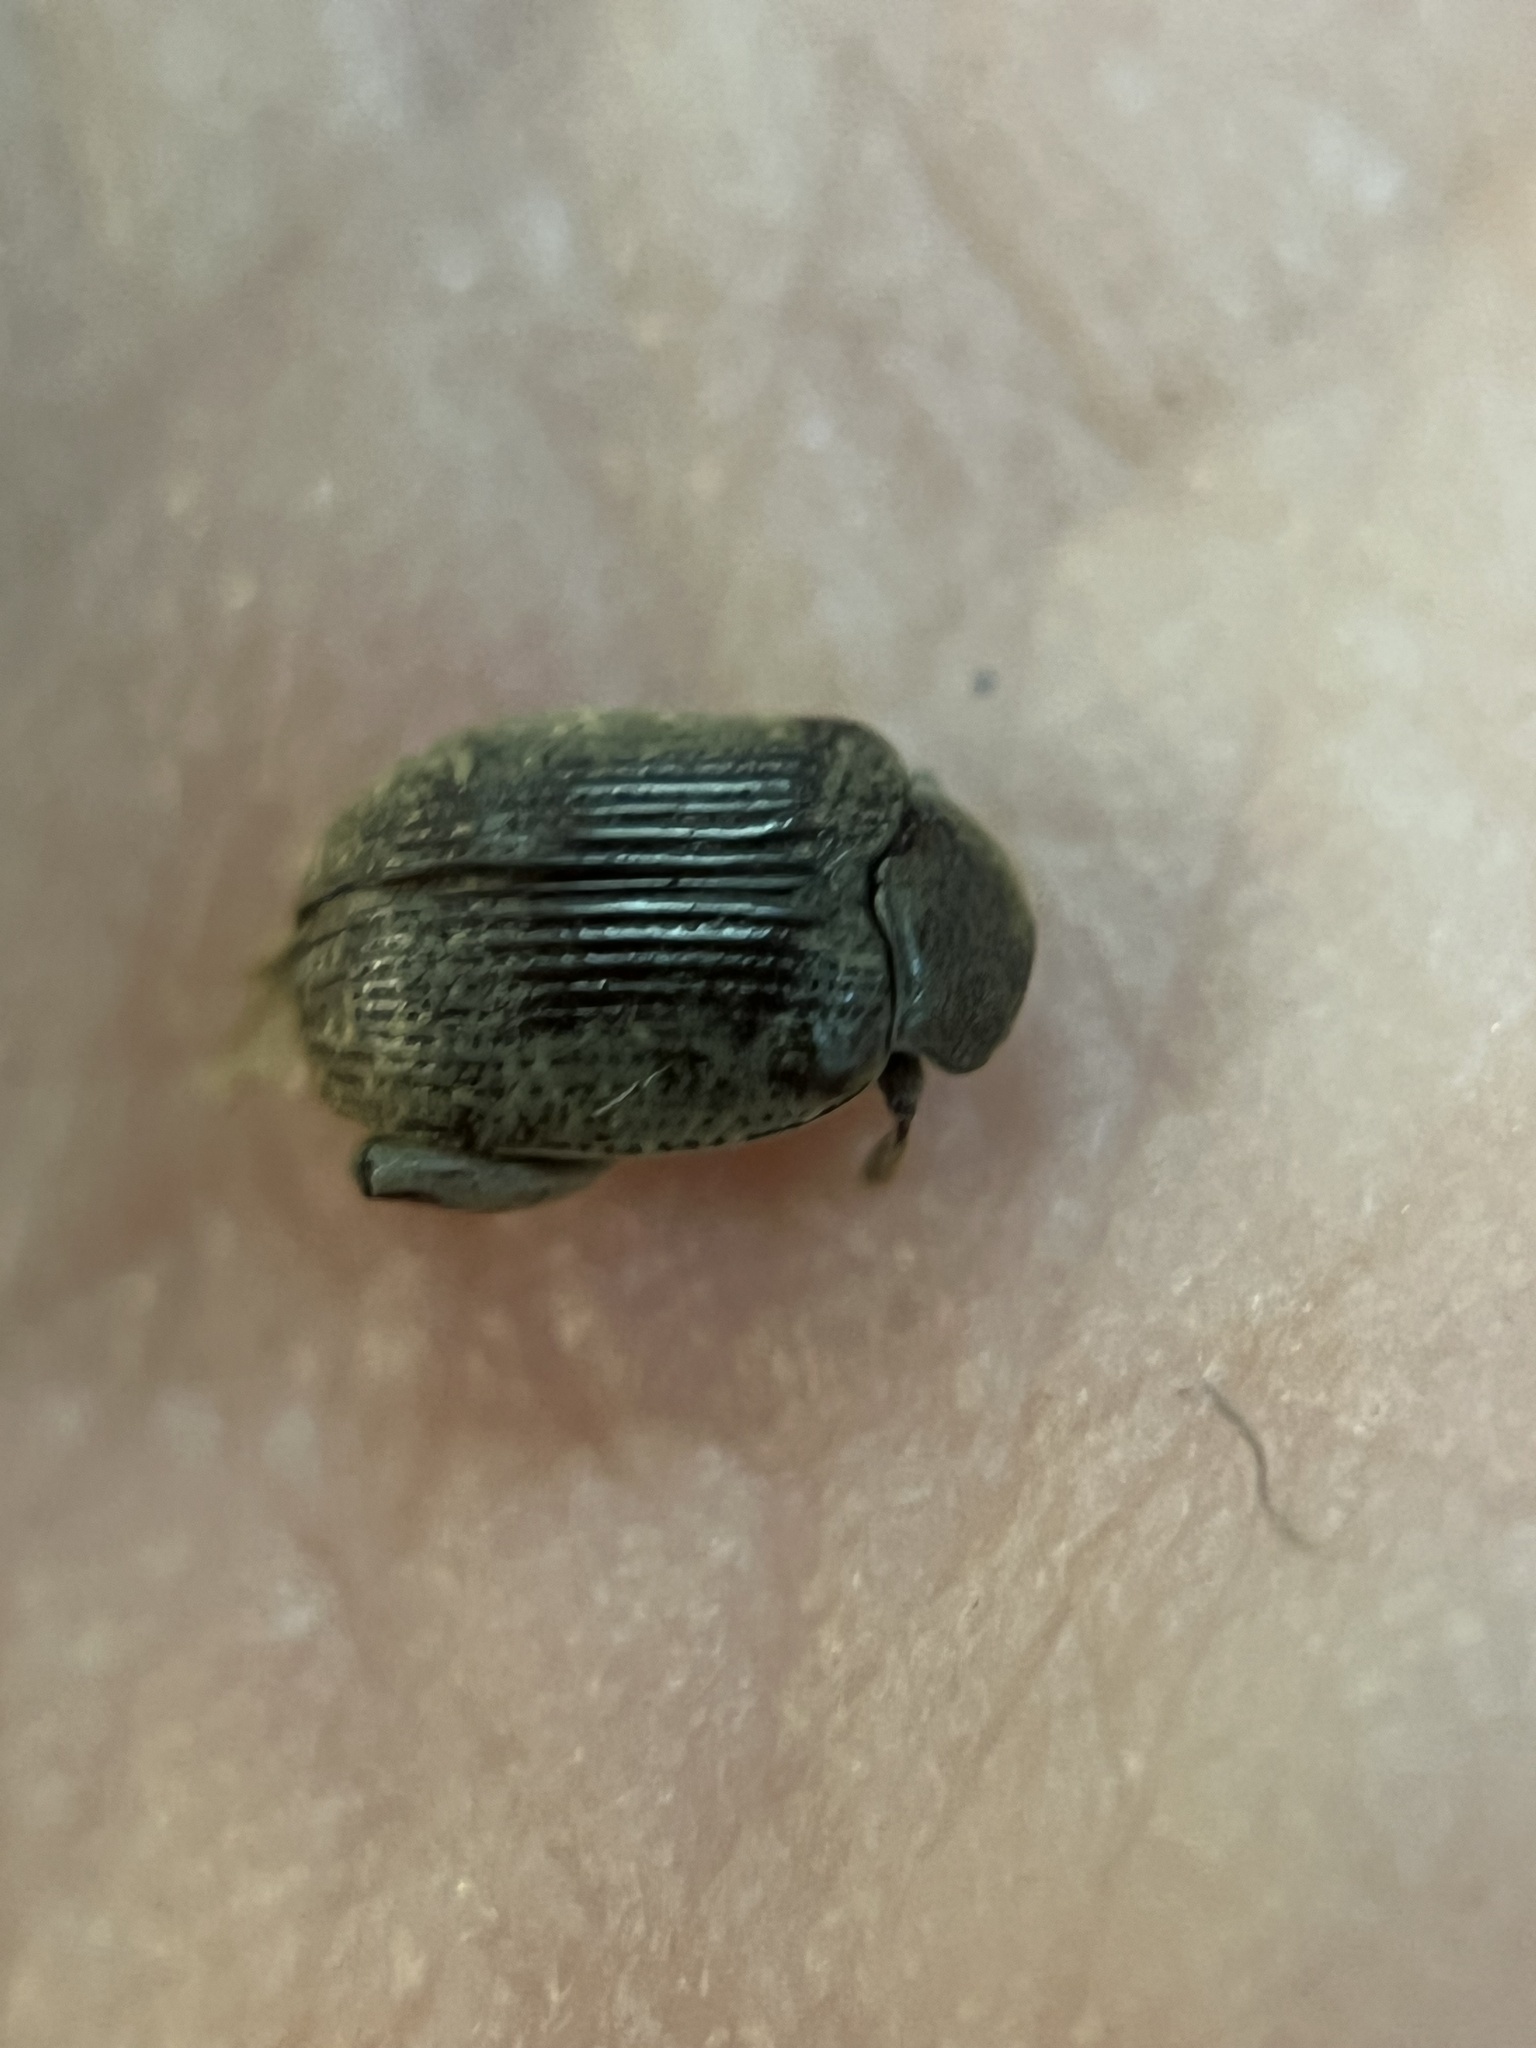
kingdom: Animalia
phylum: Arthropoda
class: Insecta
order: Coleoptera
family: Chrysomelidae
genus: Caryobruchus
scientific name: Caryobruchus gleditsiae
